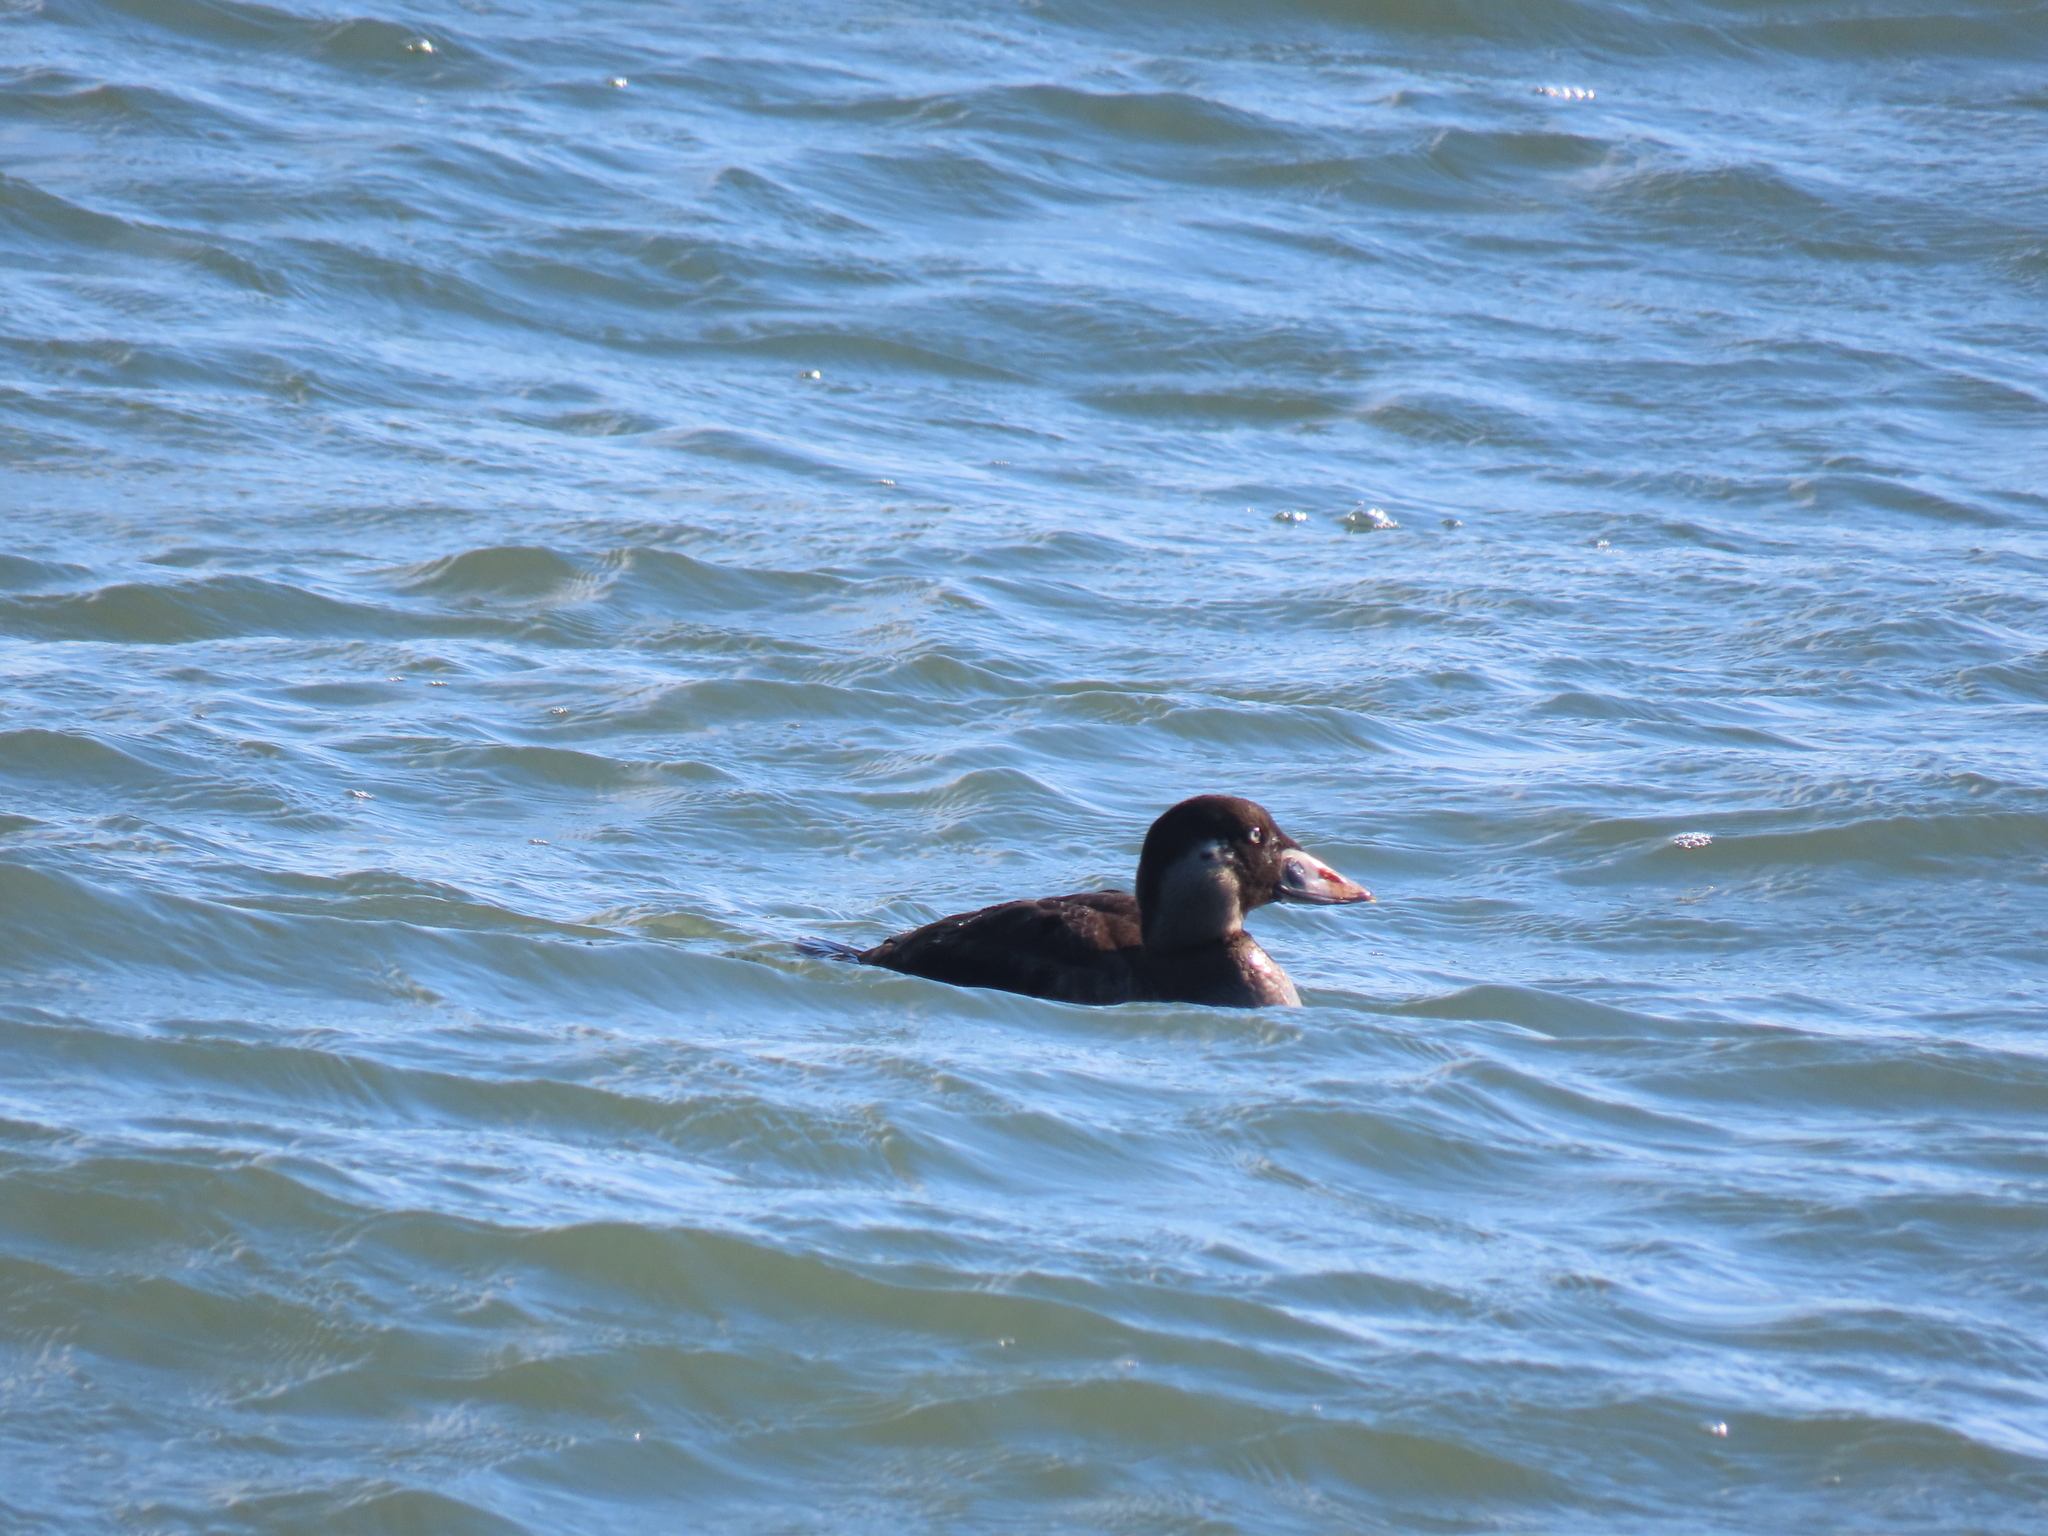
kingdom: Animalia
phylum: Chordata
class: Aves
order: Anseriformes
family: Anatidae
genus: Melanitta
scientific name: Melanitta perspicillata
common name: Surf scoter
